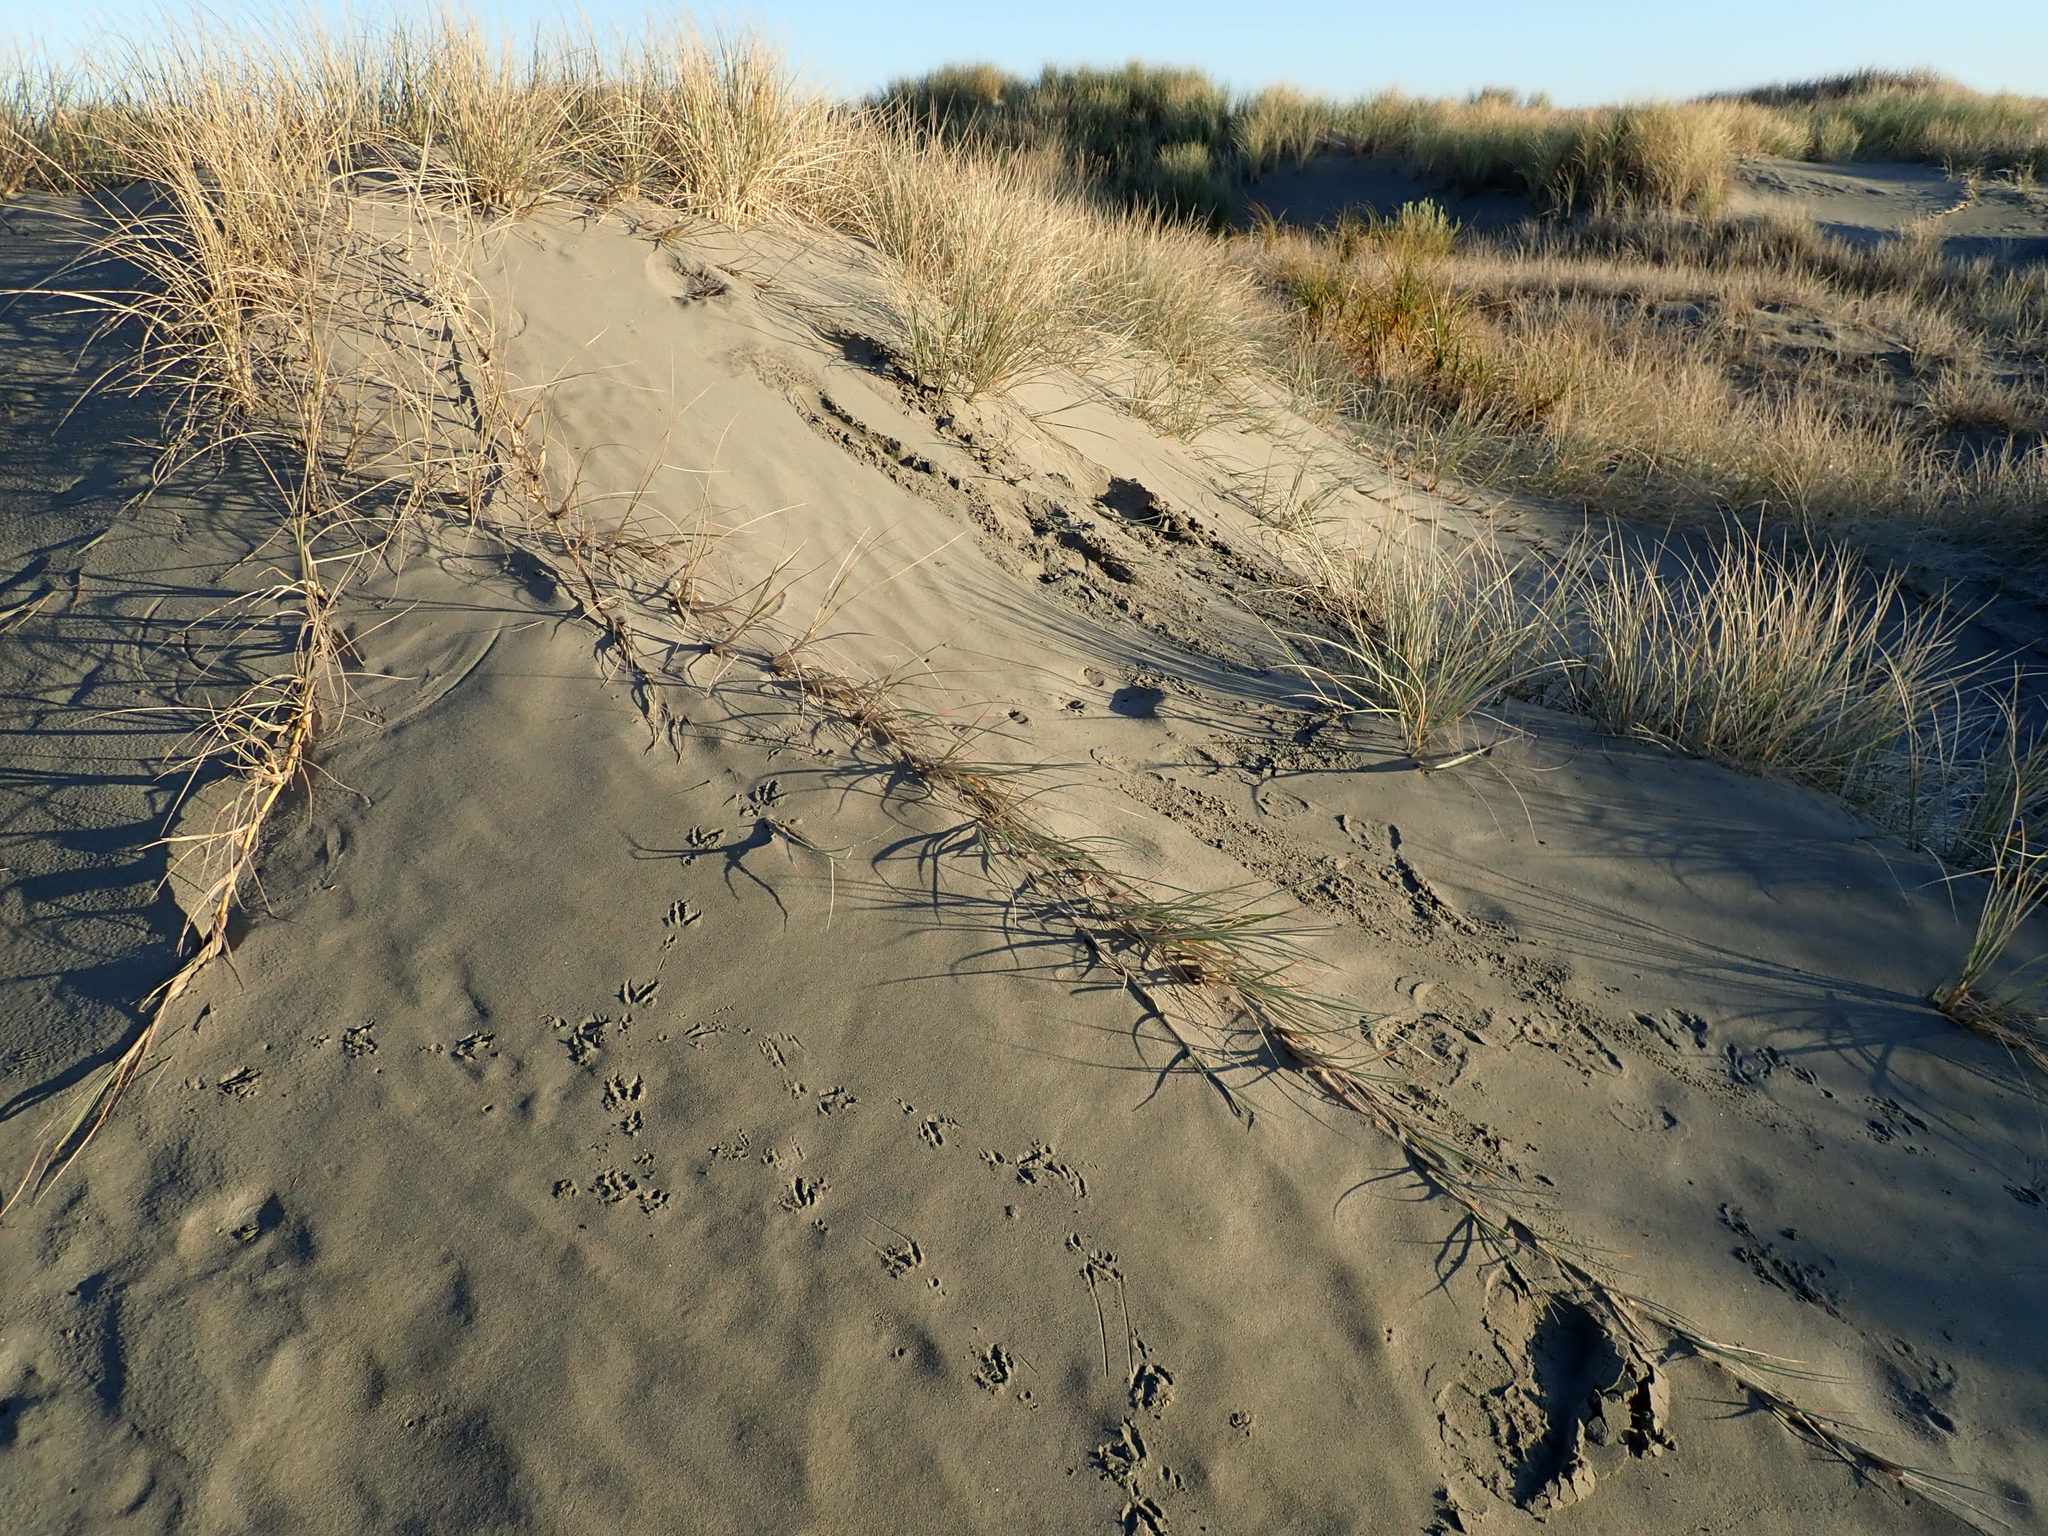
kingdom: Plantae
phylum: Tracheophyta
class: Liliopsida
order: Poales
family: Poaceae
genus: Spinifex
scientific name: Spinifex sericeus
